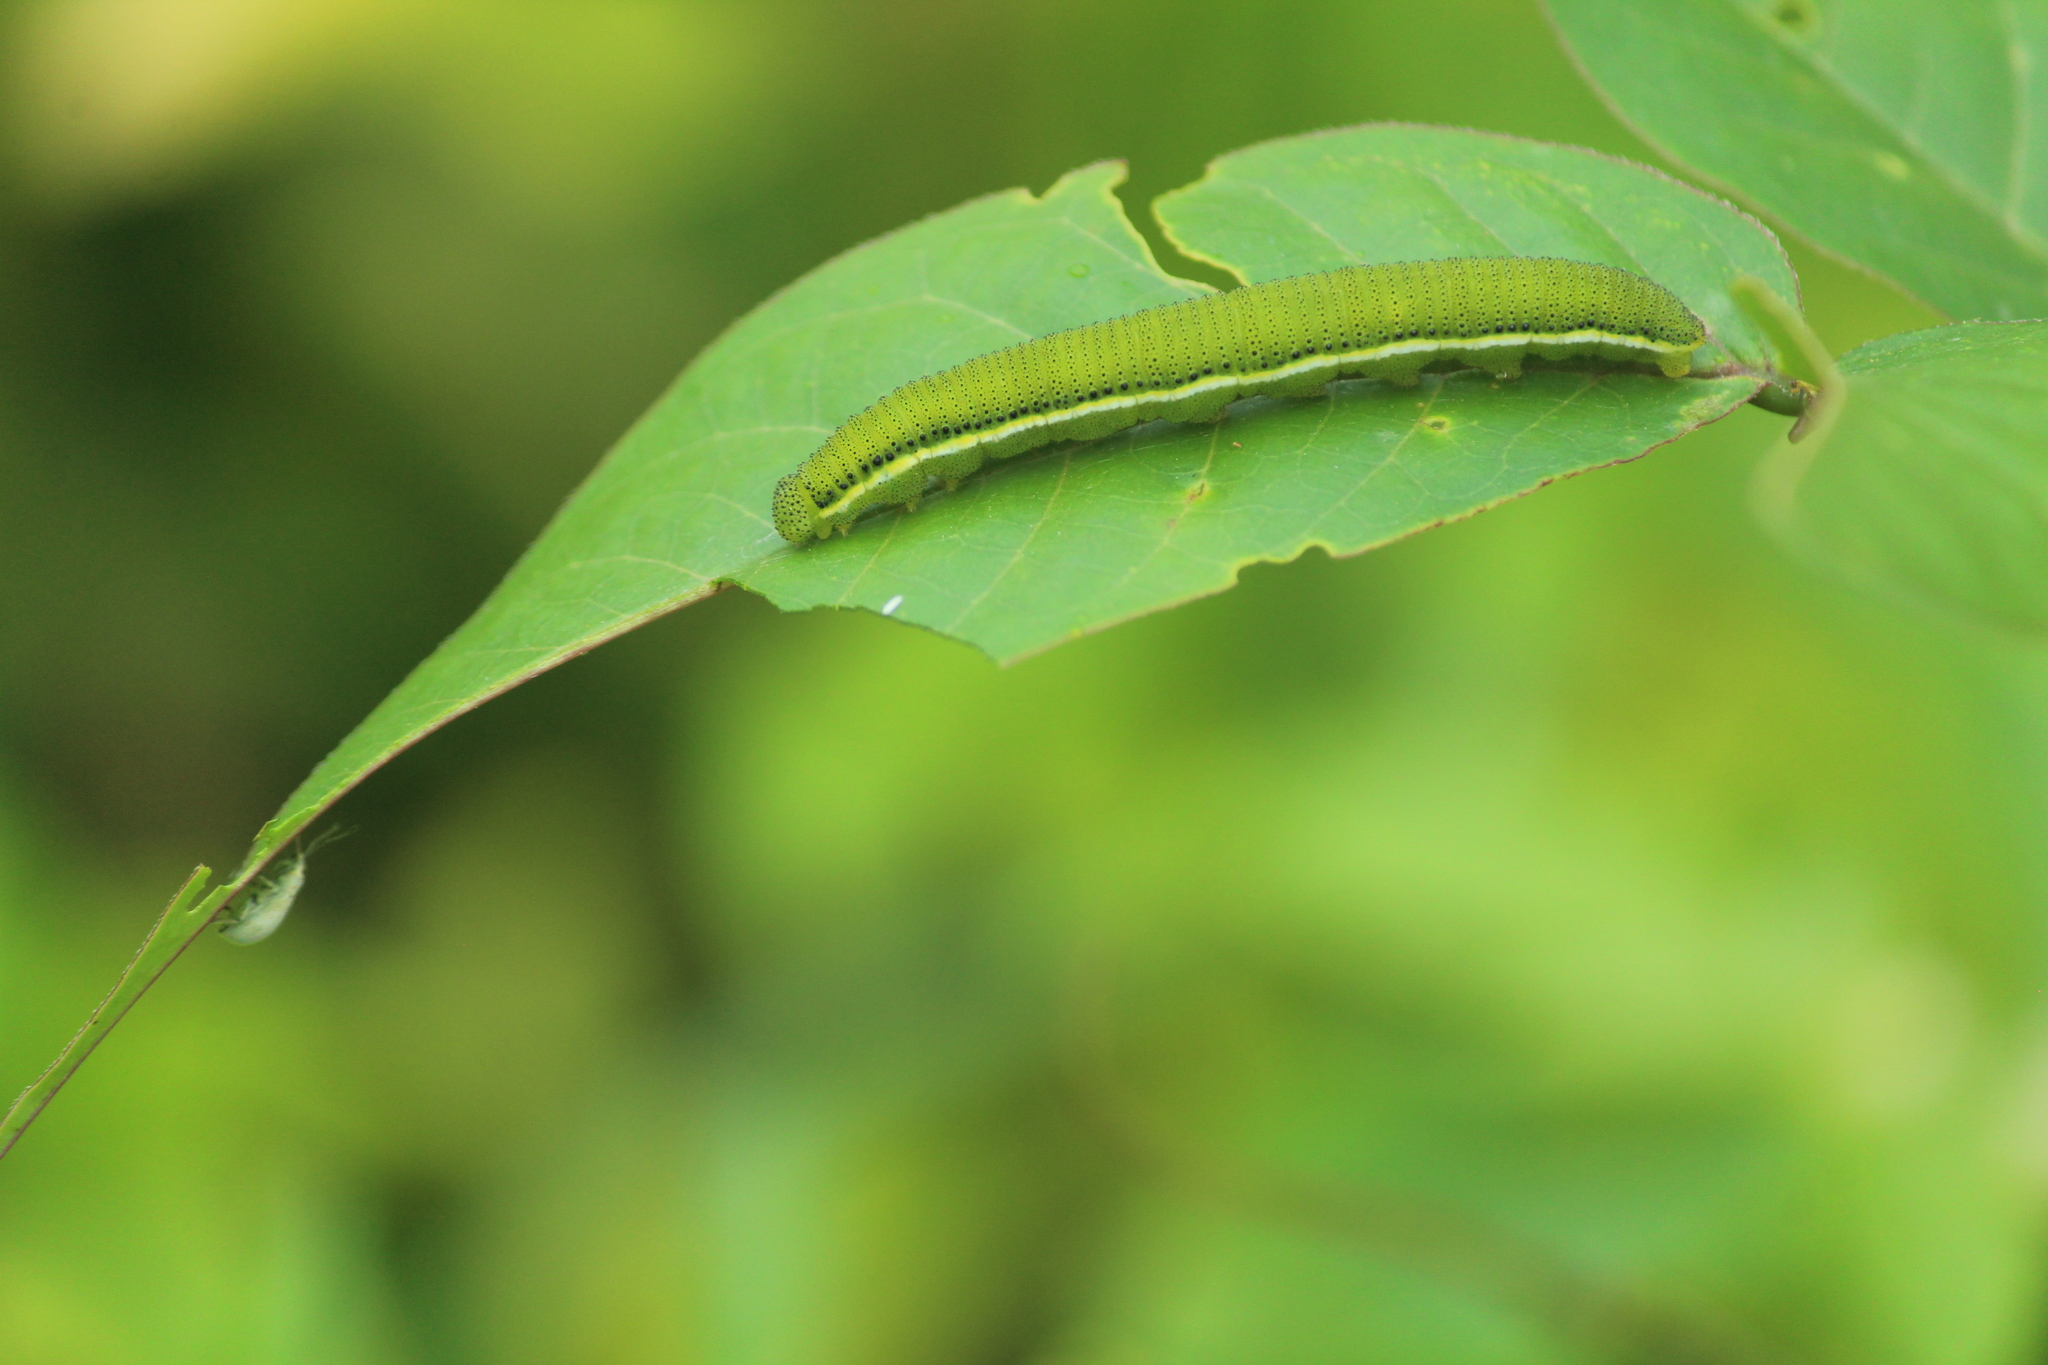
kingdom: Animalia
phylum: Arthropoda
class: Insecta
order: Lepidoptera
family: Pieridae
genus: Catopsilia
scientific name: Catopsilia pyranthe
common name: Mottled emigrant
